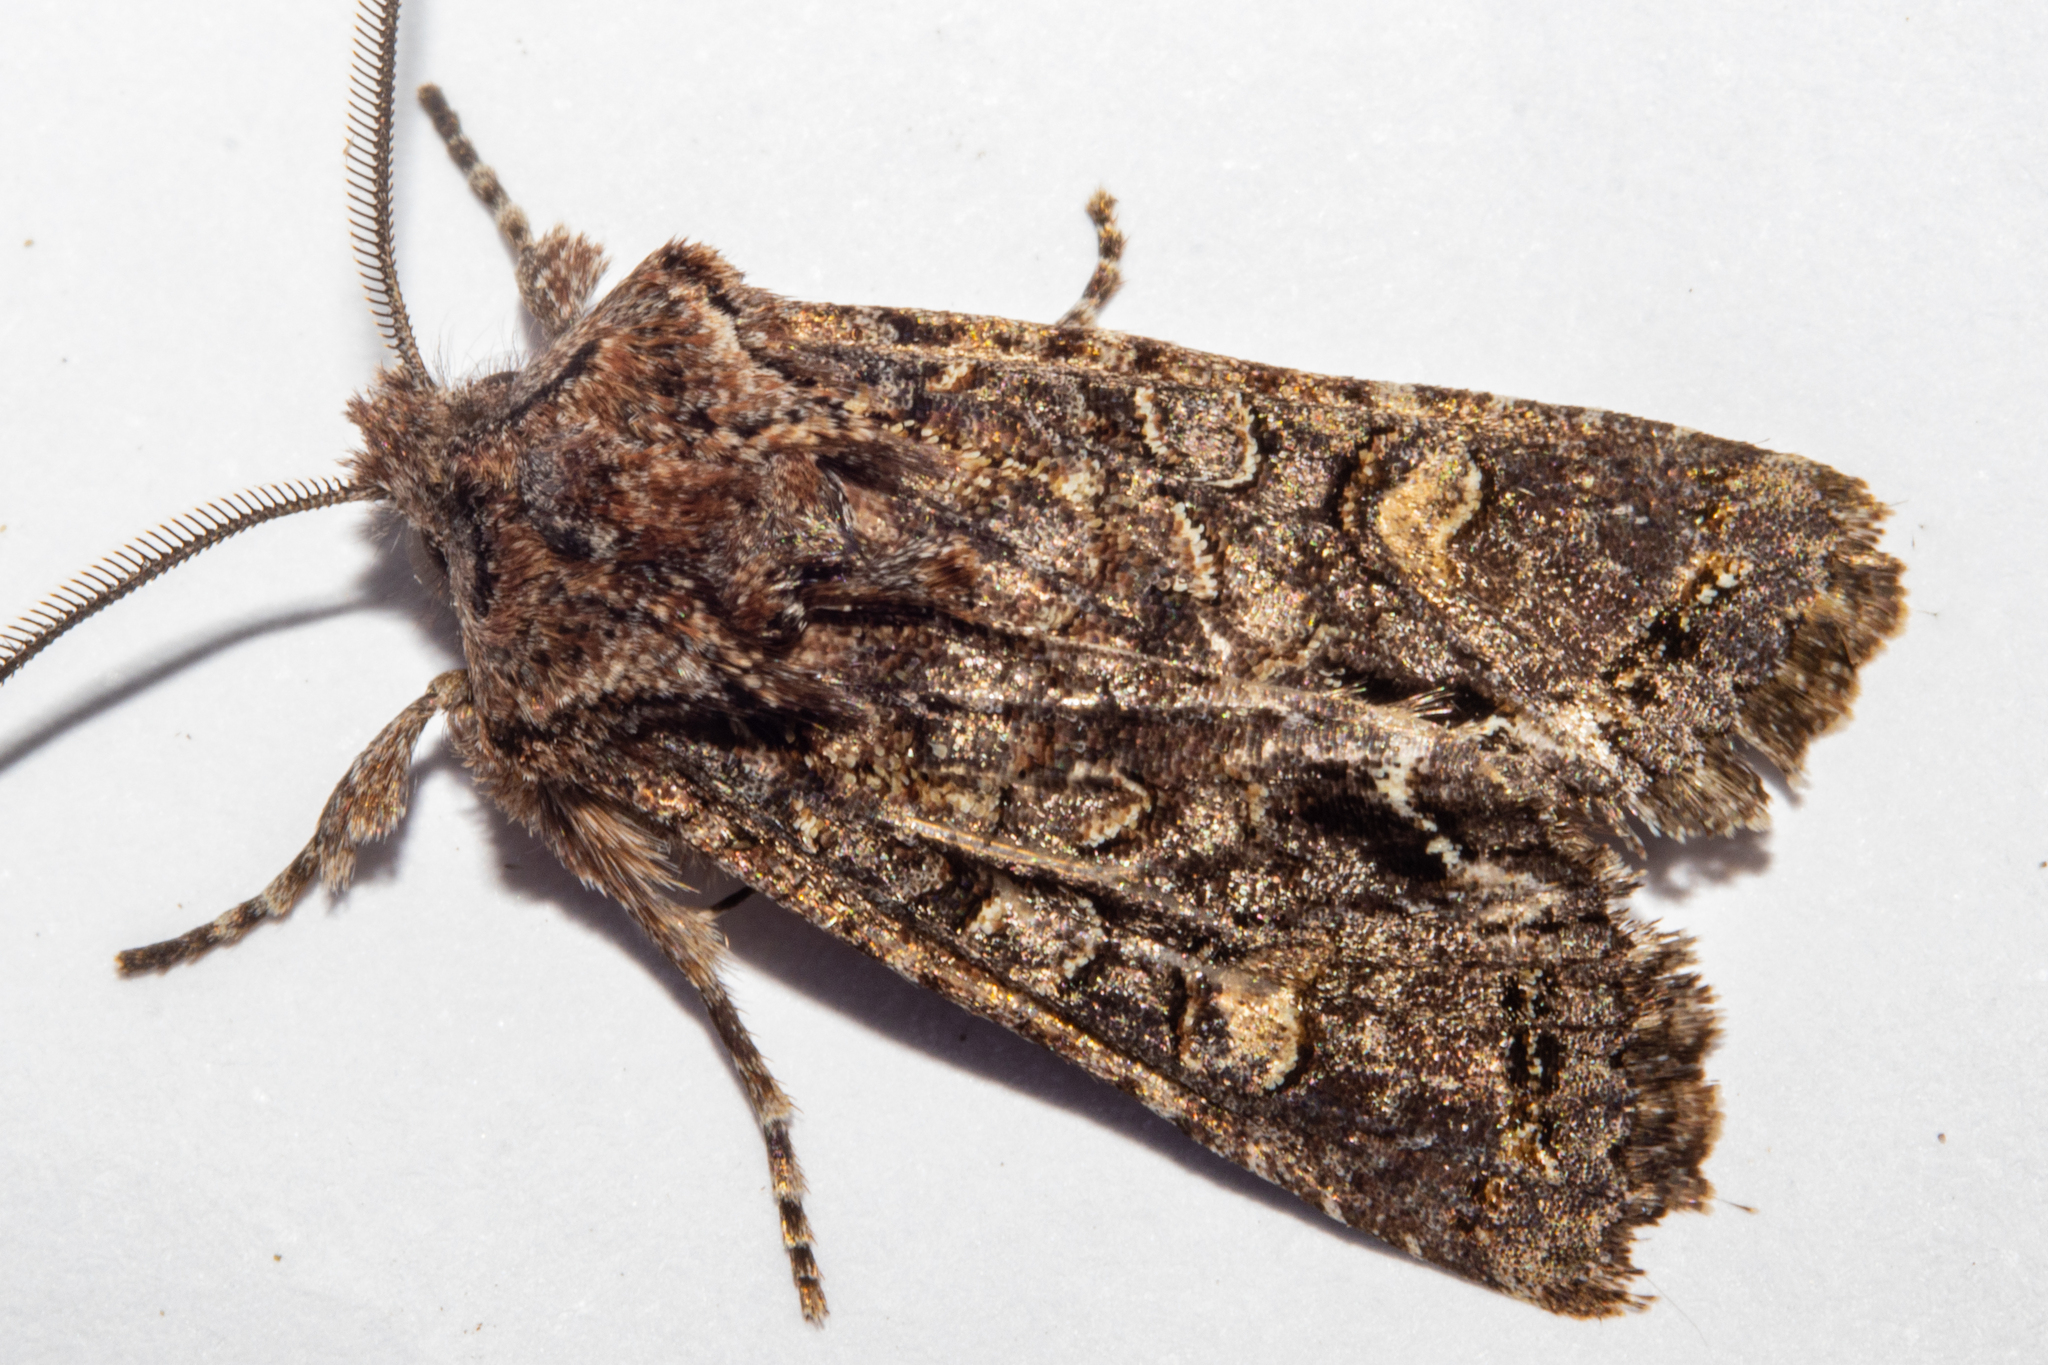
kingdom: Animalia
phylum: Arthropoda
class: Insecta
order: Lepidoptera
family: Noctuidae
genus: Ichneutica
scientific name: Ichneutica insignis
